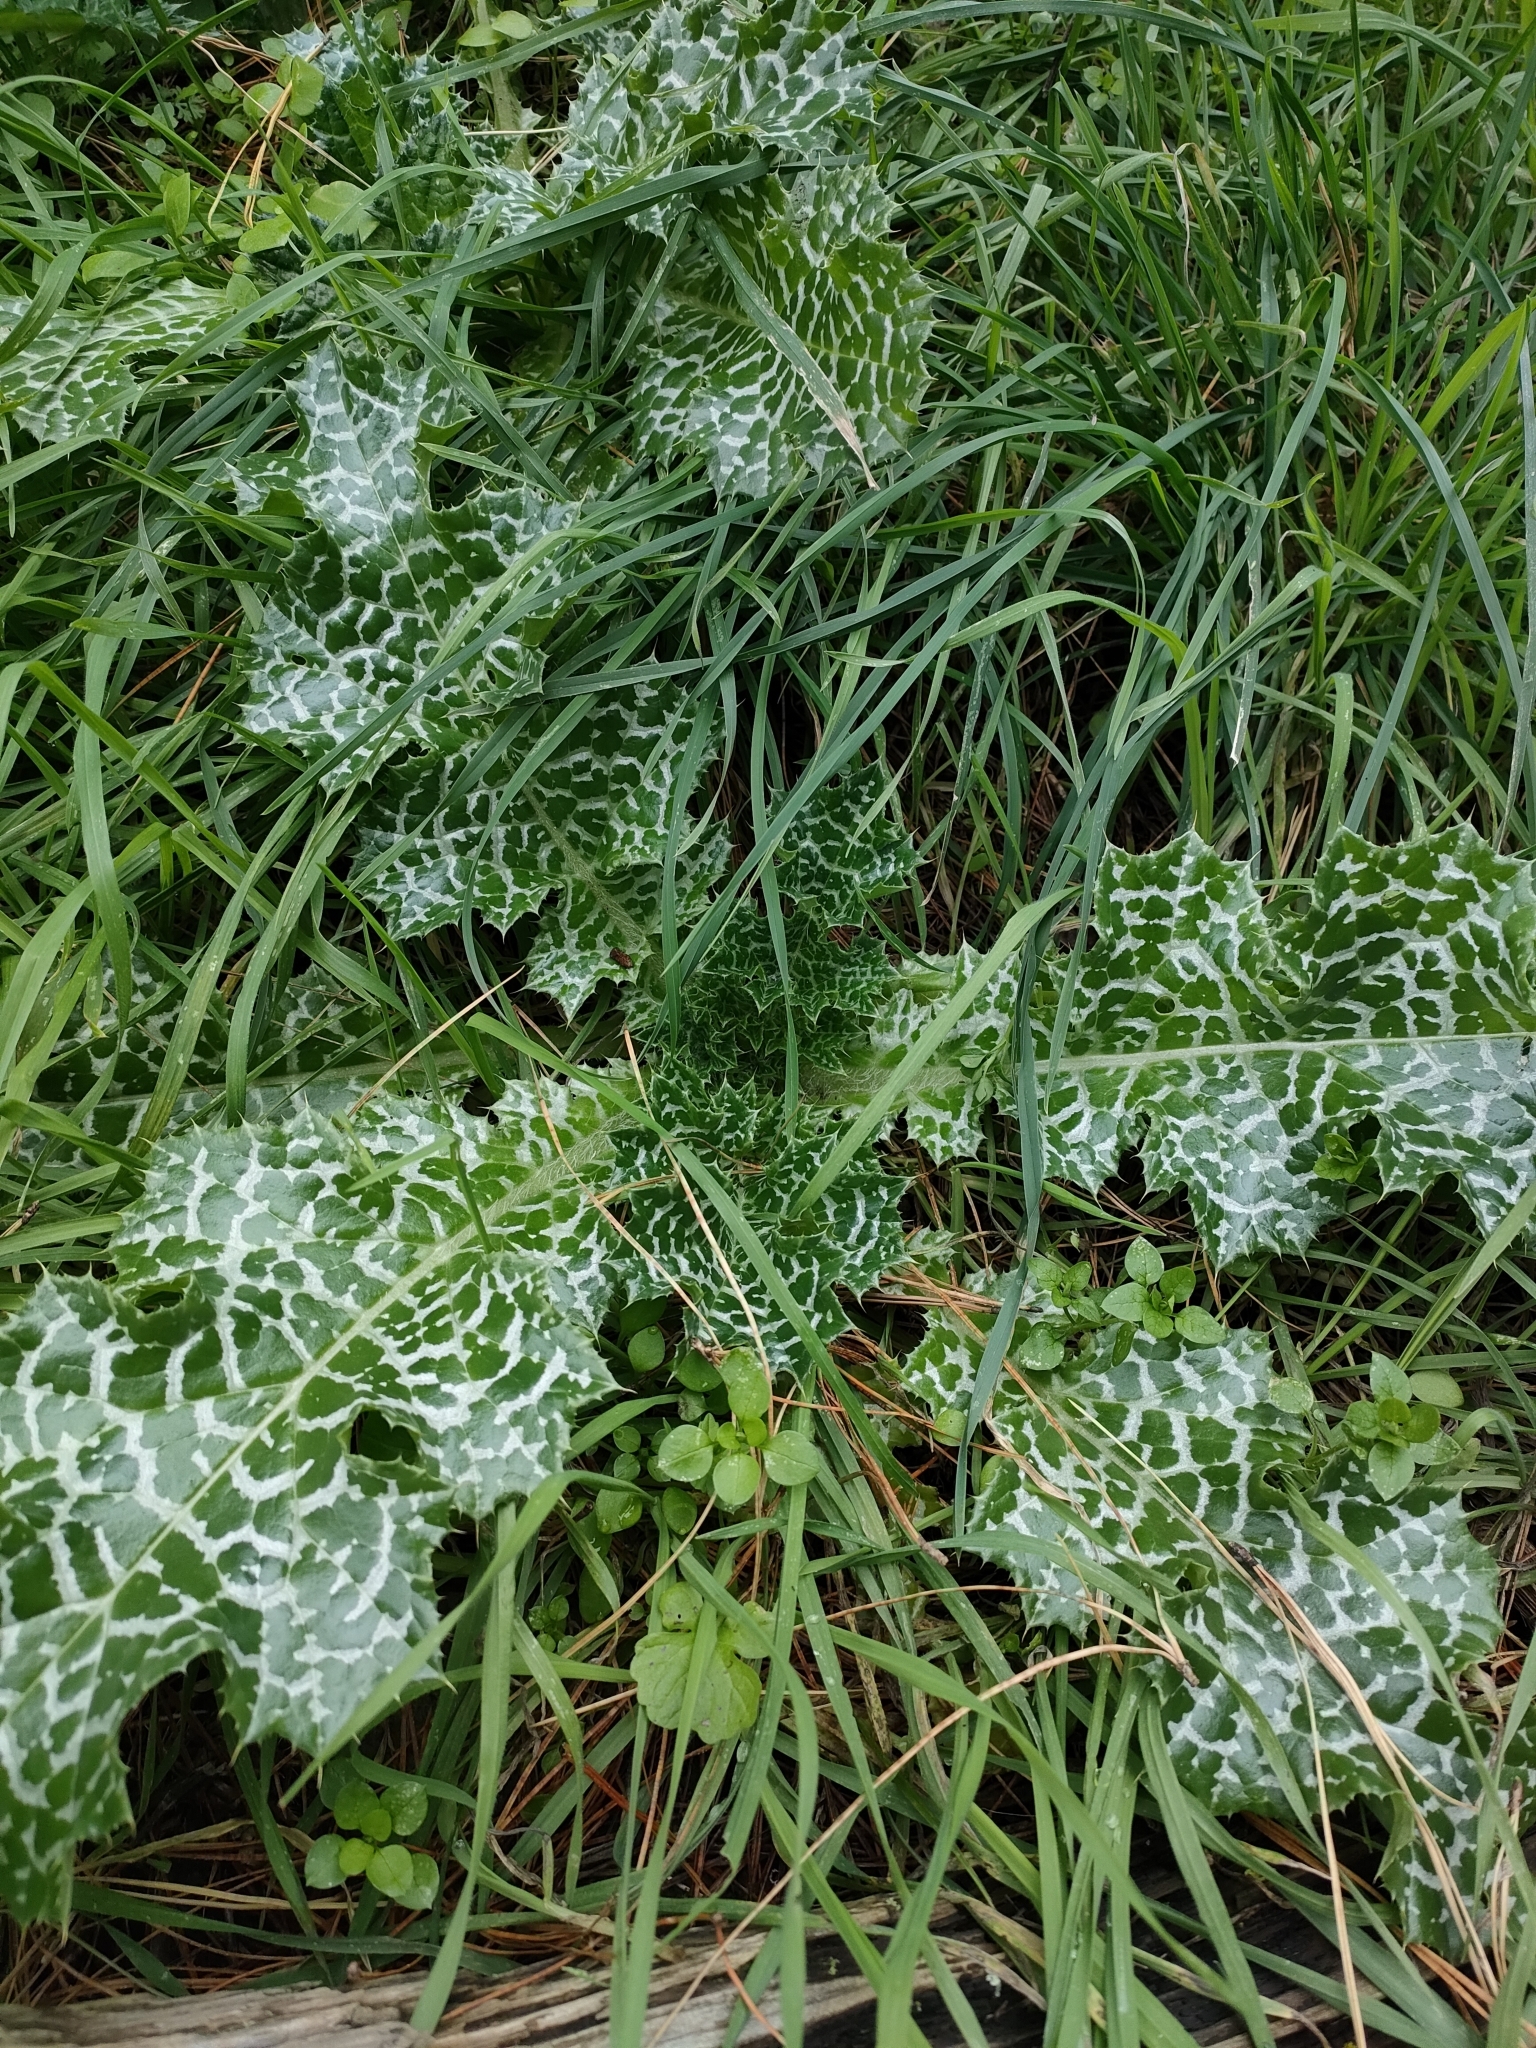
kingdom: Plantae
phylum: Tracheophyta
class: Magnoliopsida
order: Asterales
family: Asteraceae
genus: Silybum
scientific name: Silybum marianum
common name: Milk thistle
